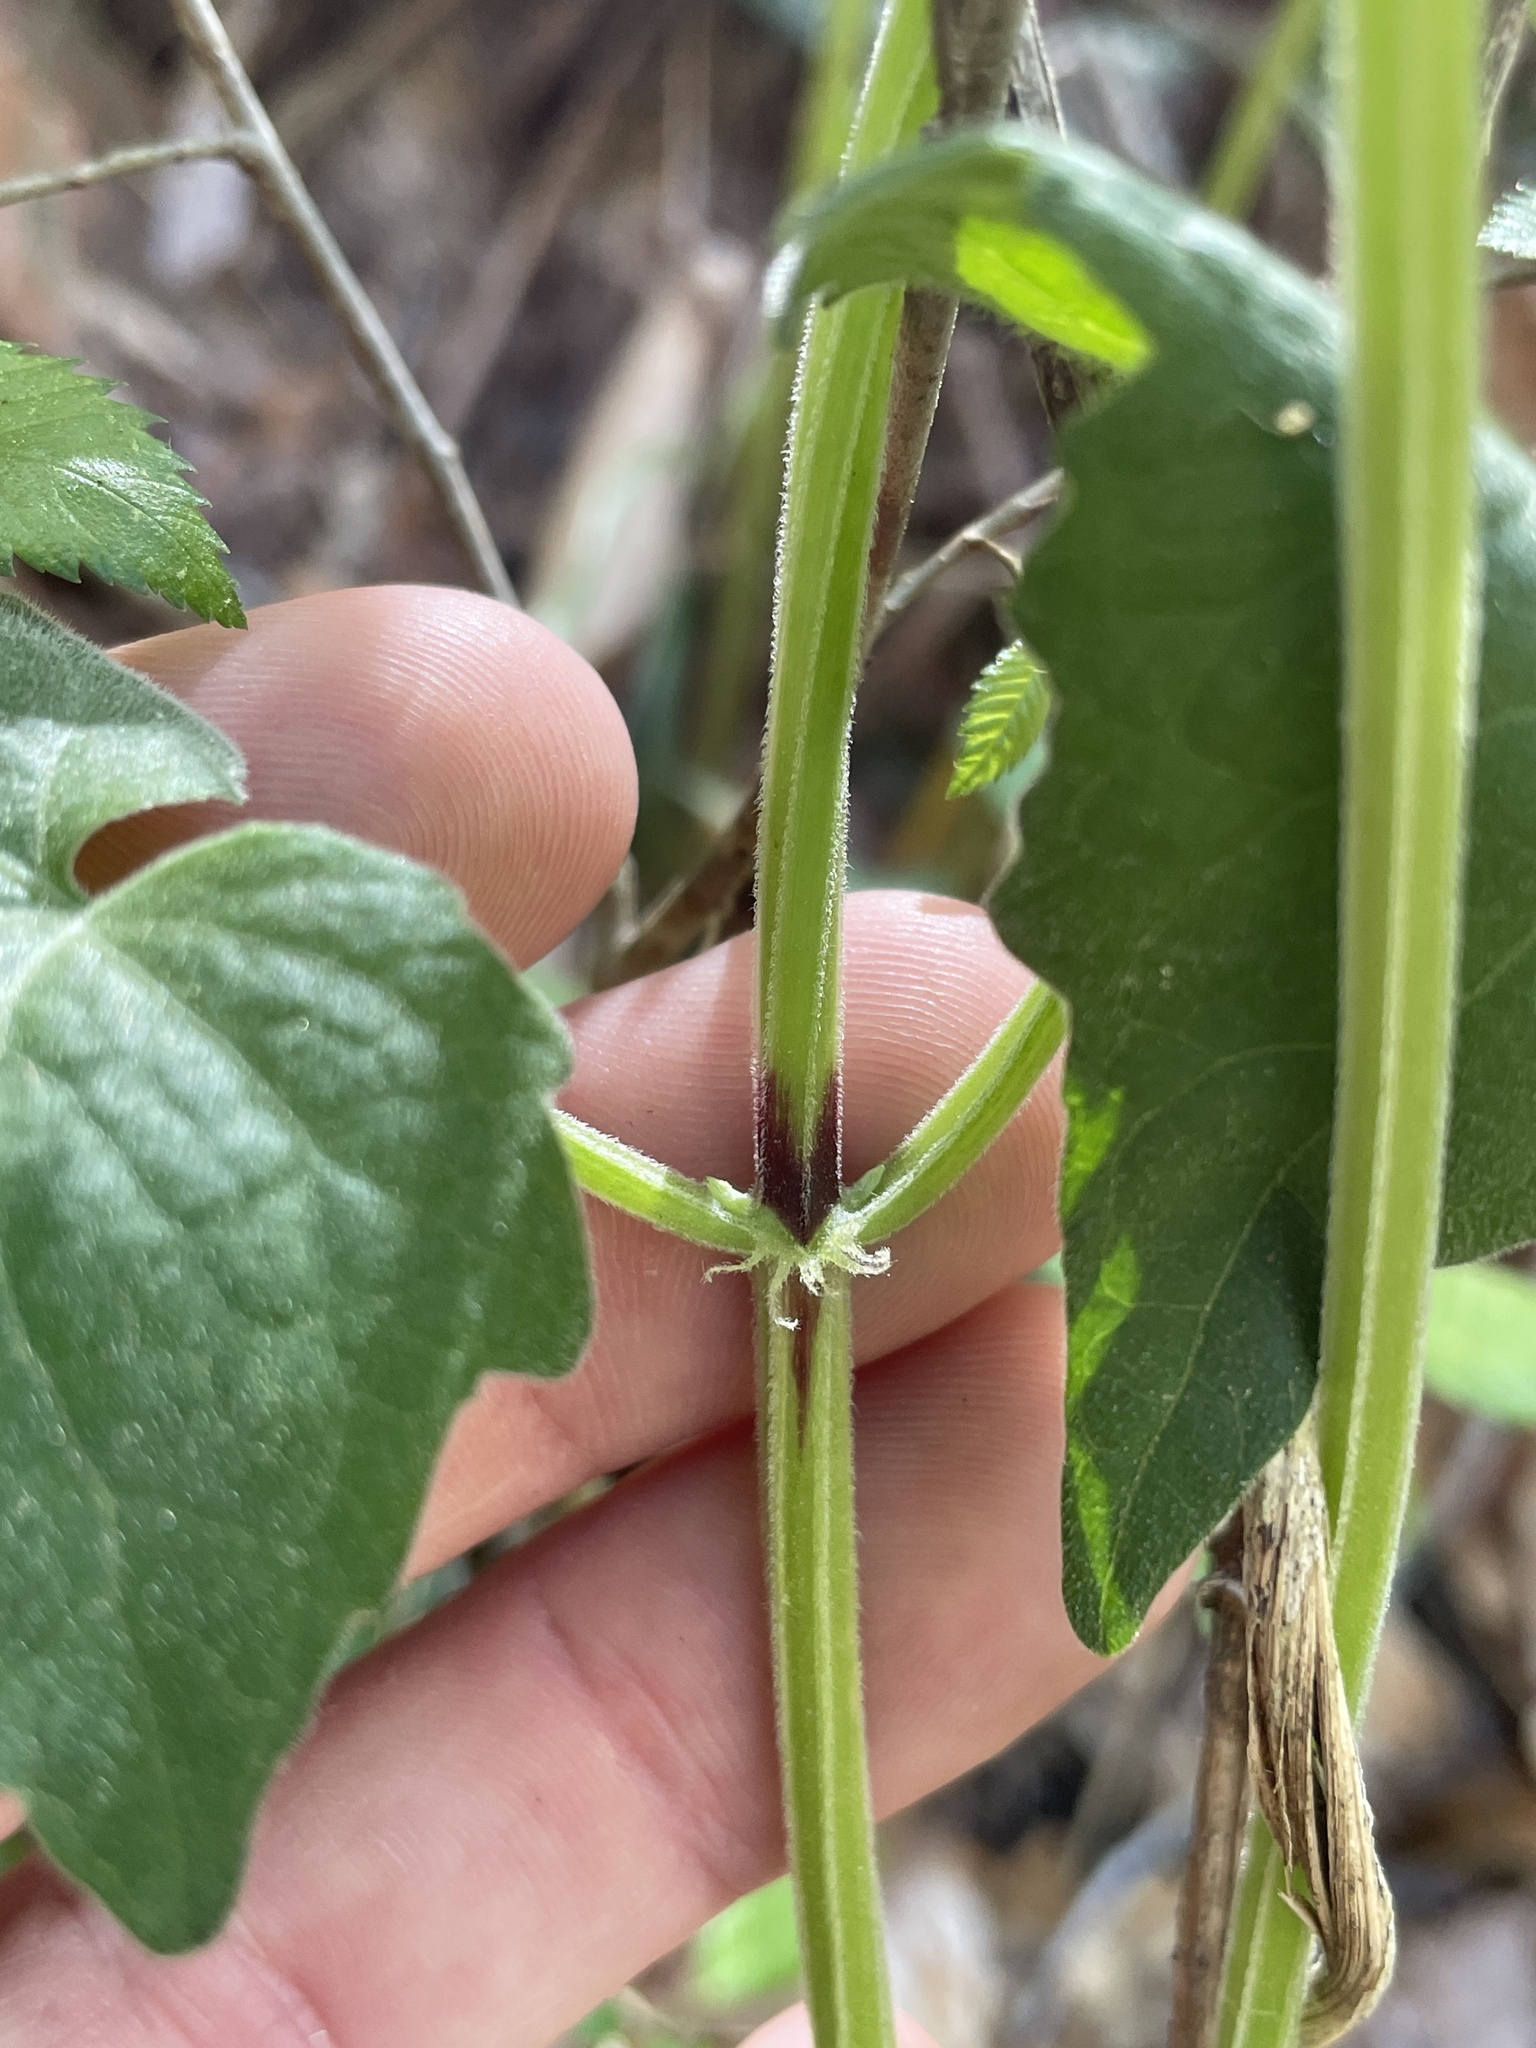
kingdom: Plantae
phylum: Tracheophyta
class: Magnoliopsida
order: Asterales
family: Asteraceae
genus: Mikania
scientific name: Mikania cordifolia
